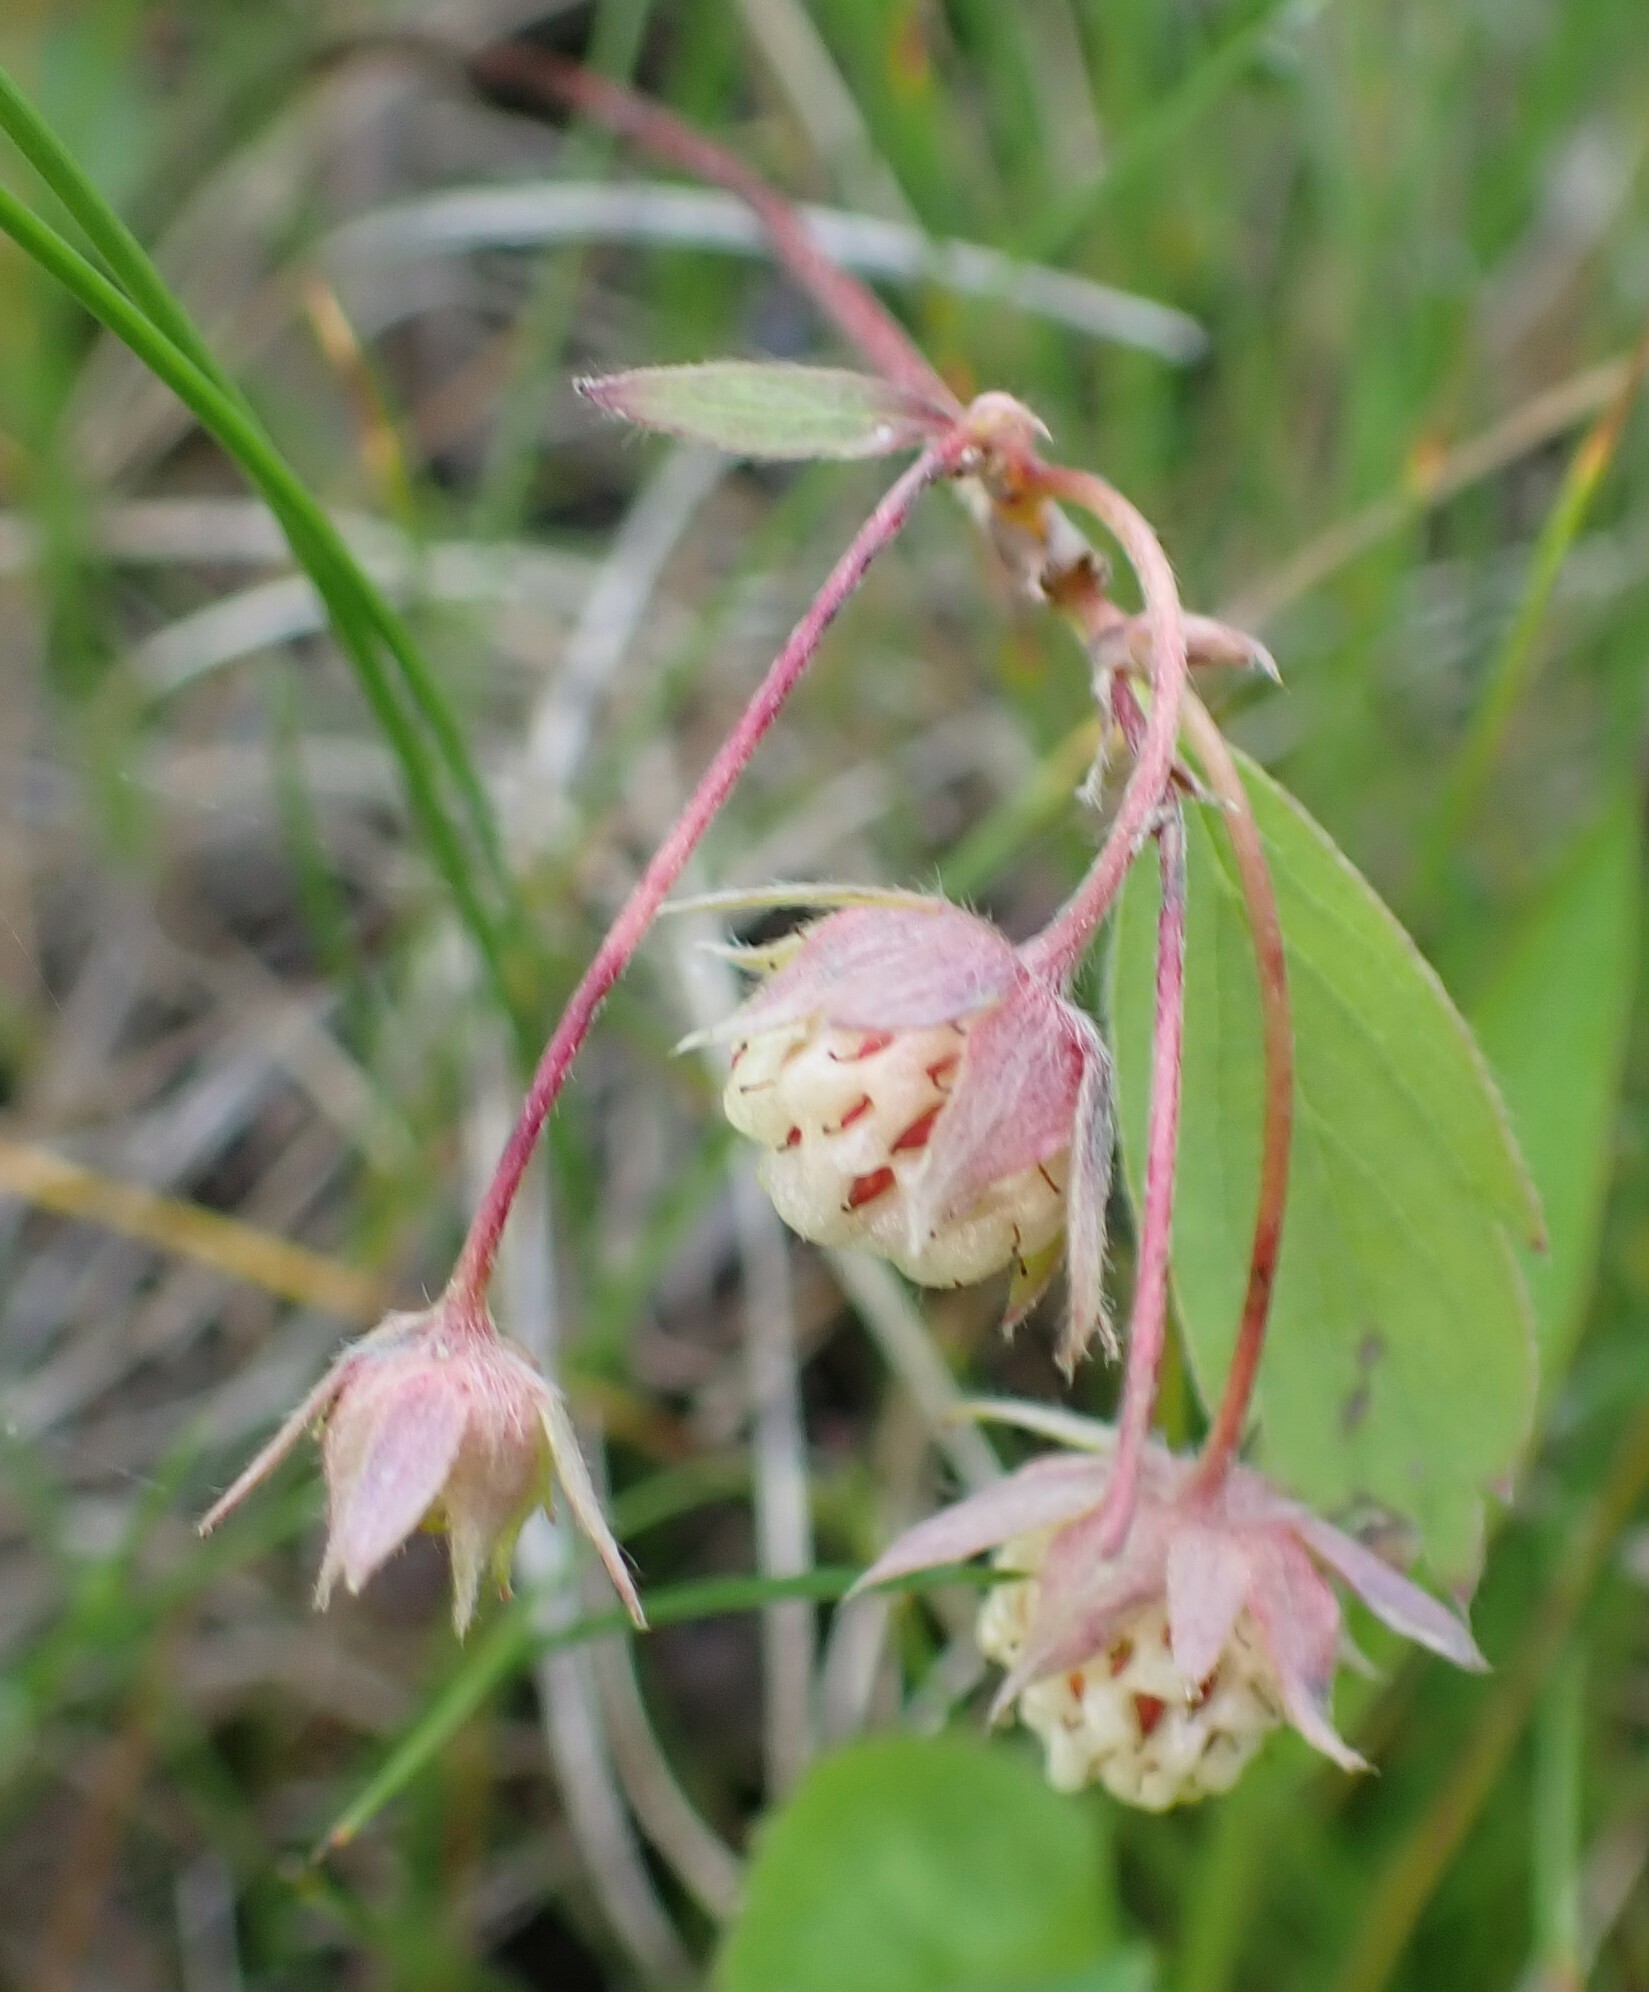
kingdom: Plantae
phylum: Tracheophyta
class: Magnoliopsida
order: Rosales
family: Rosaceae
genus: Fragaria
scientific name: Fragaria virginiana
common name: Thickleaved wild strawberry
